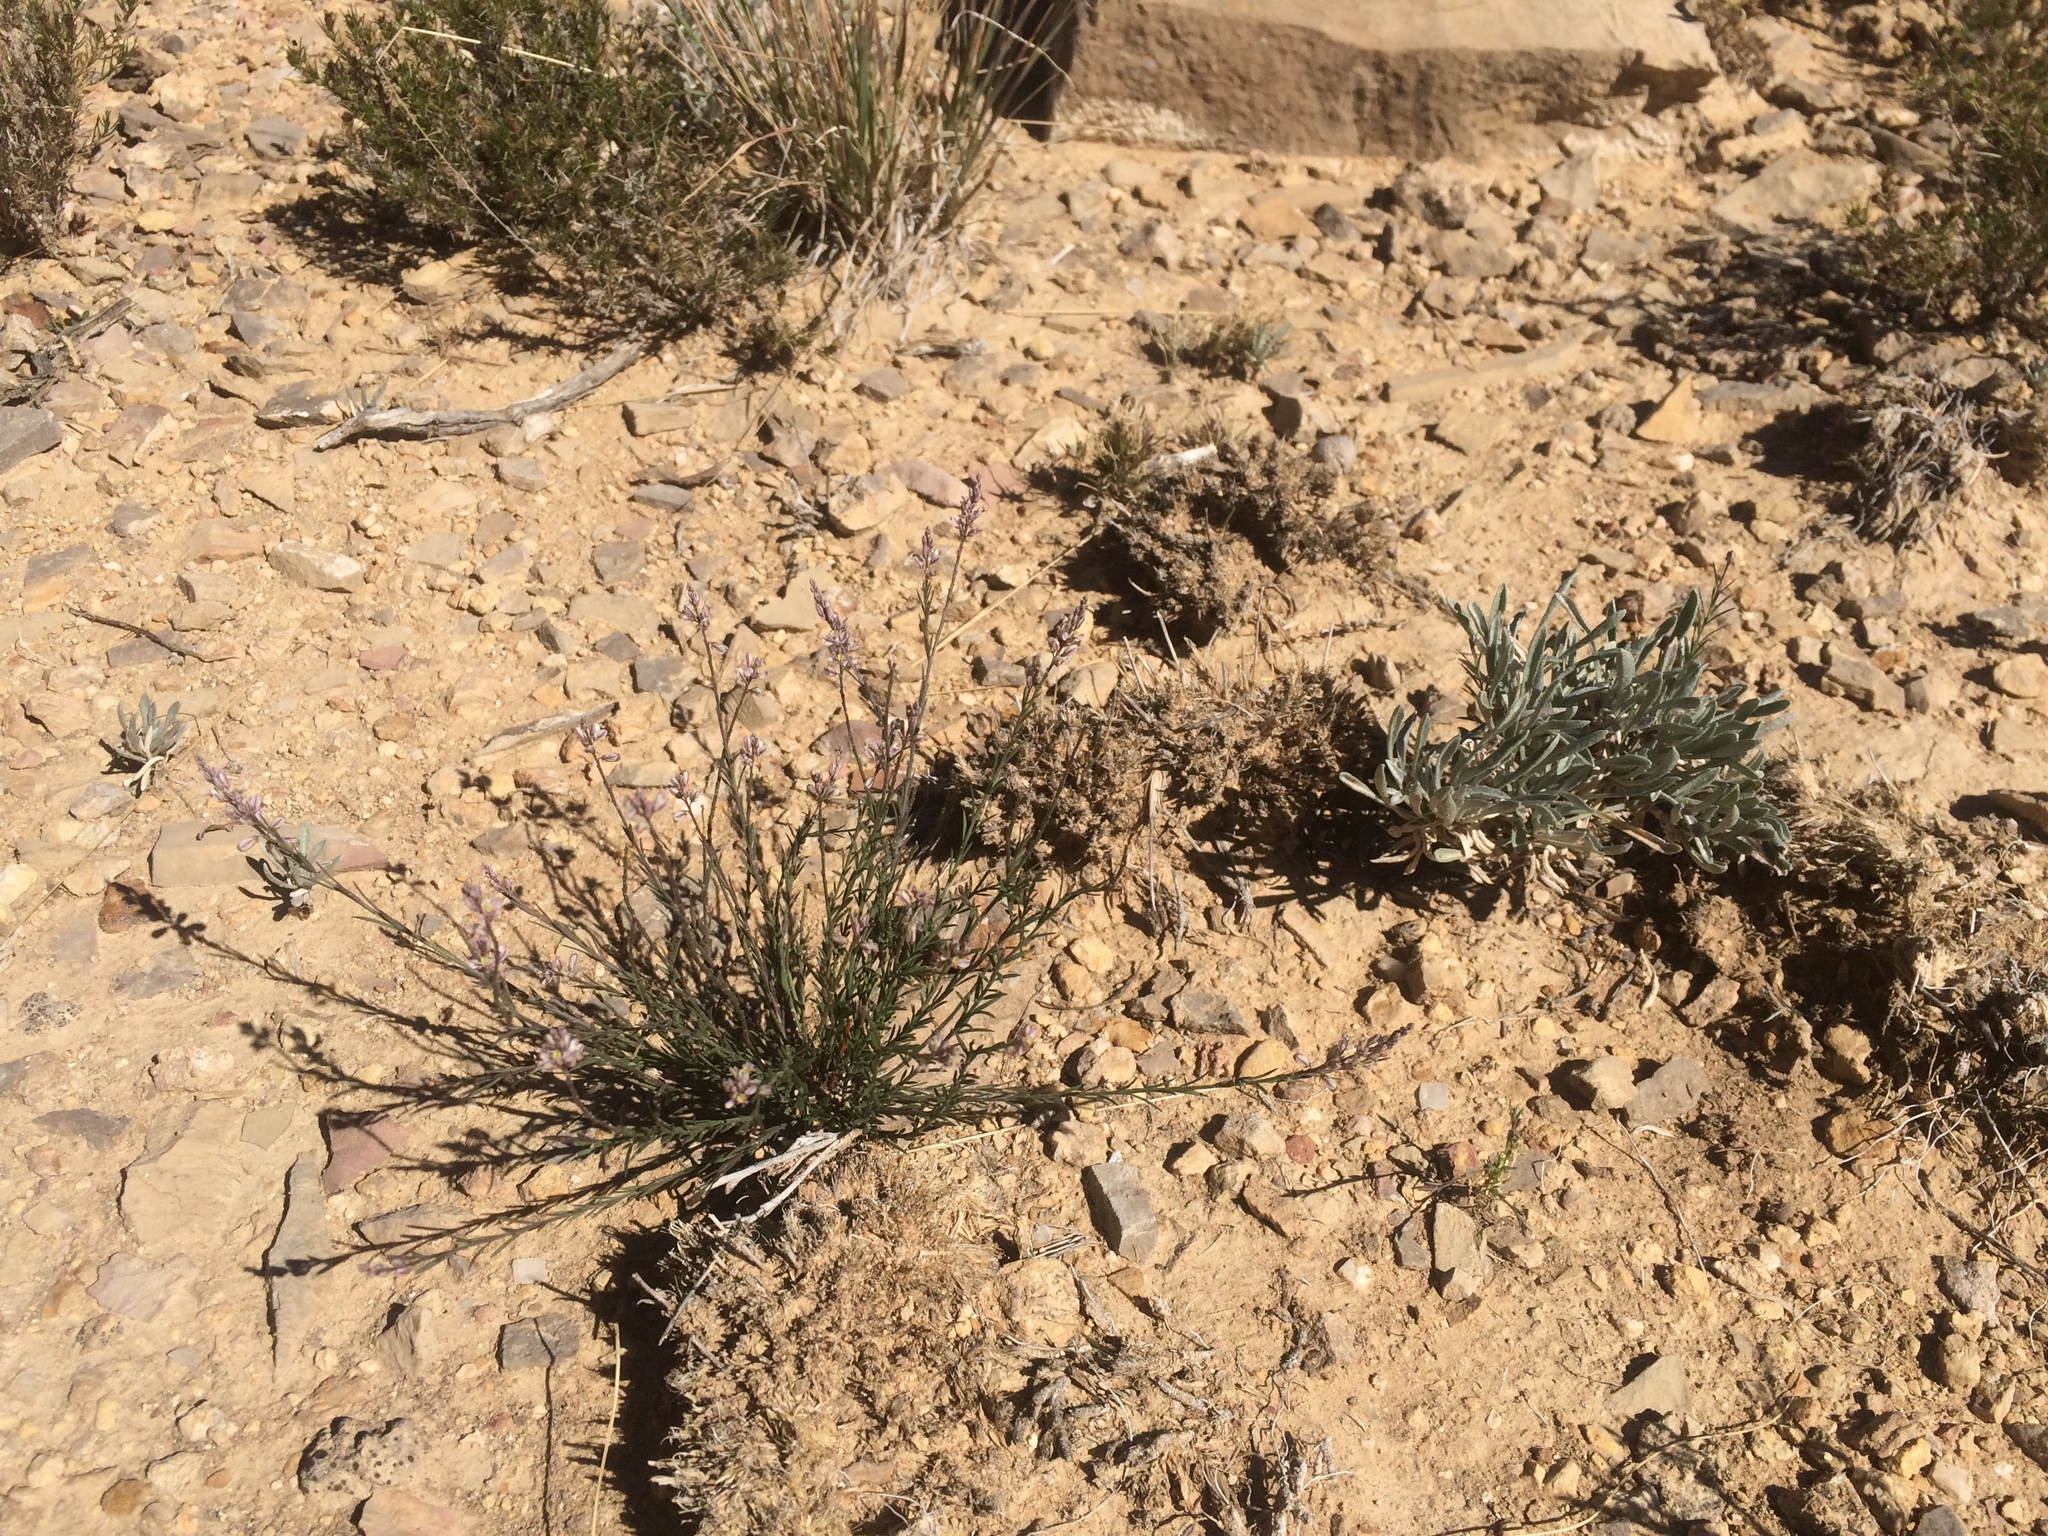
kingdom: Plantae
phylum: Tracheophyta
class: Magnoliopsida
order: Fabales
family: Polygalaceae
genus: Polygala
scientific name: Polygala scoparioides
